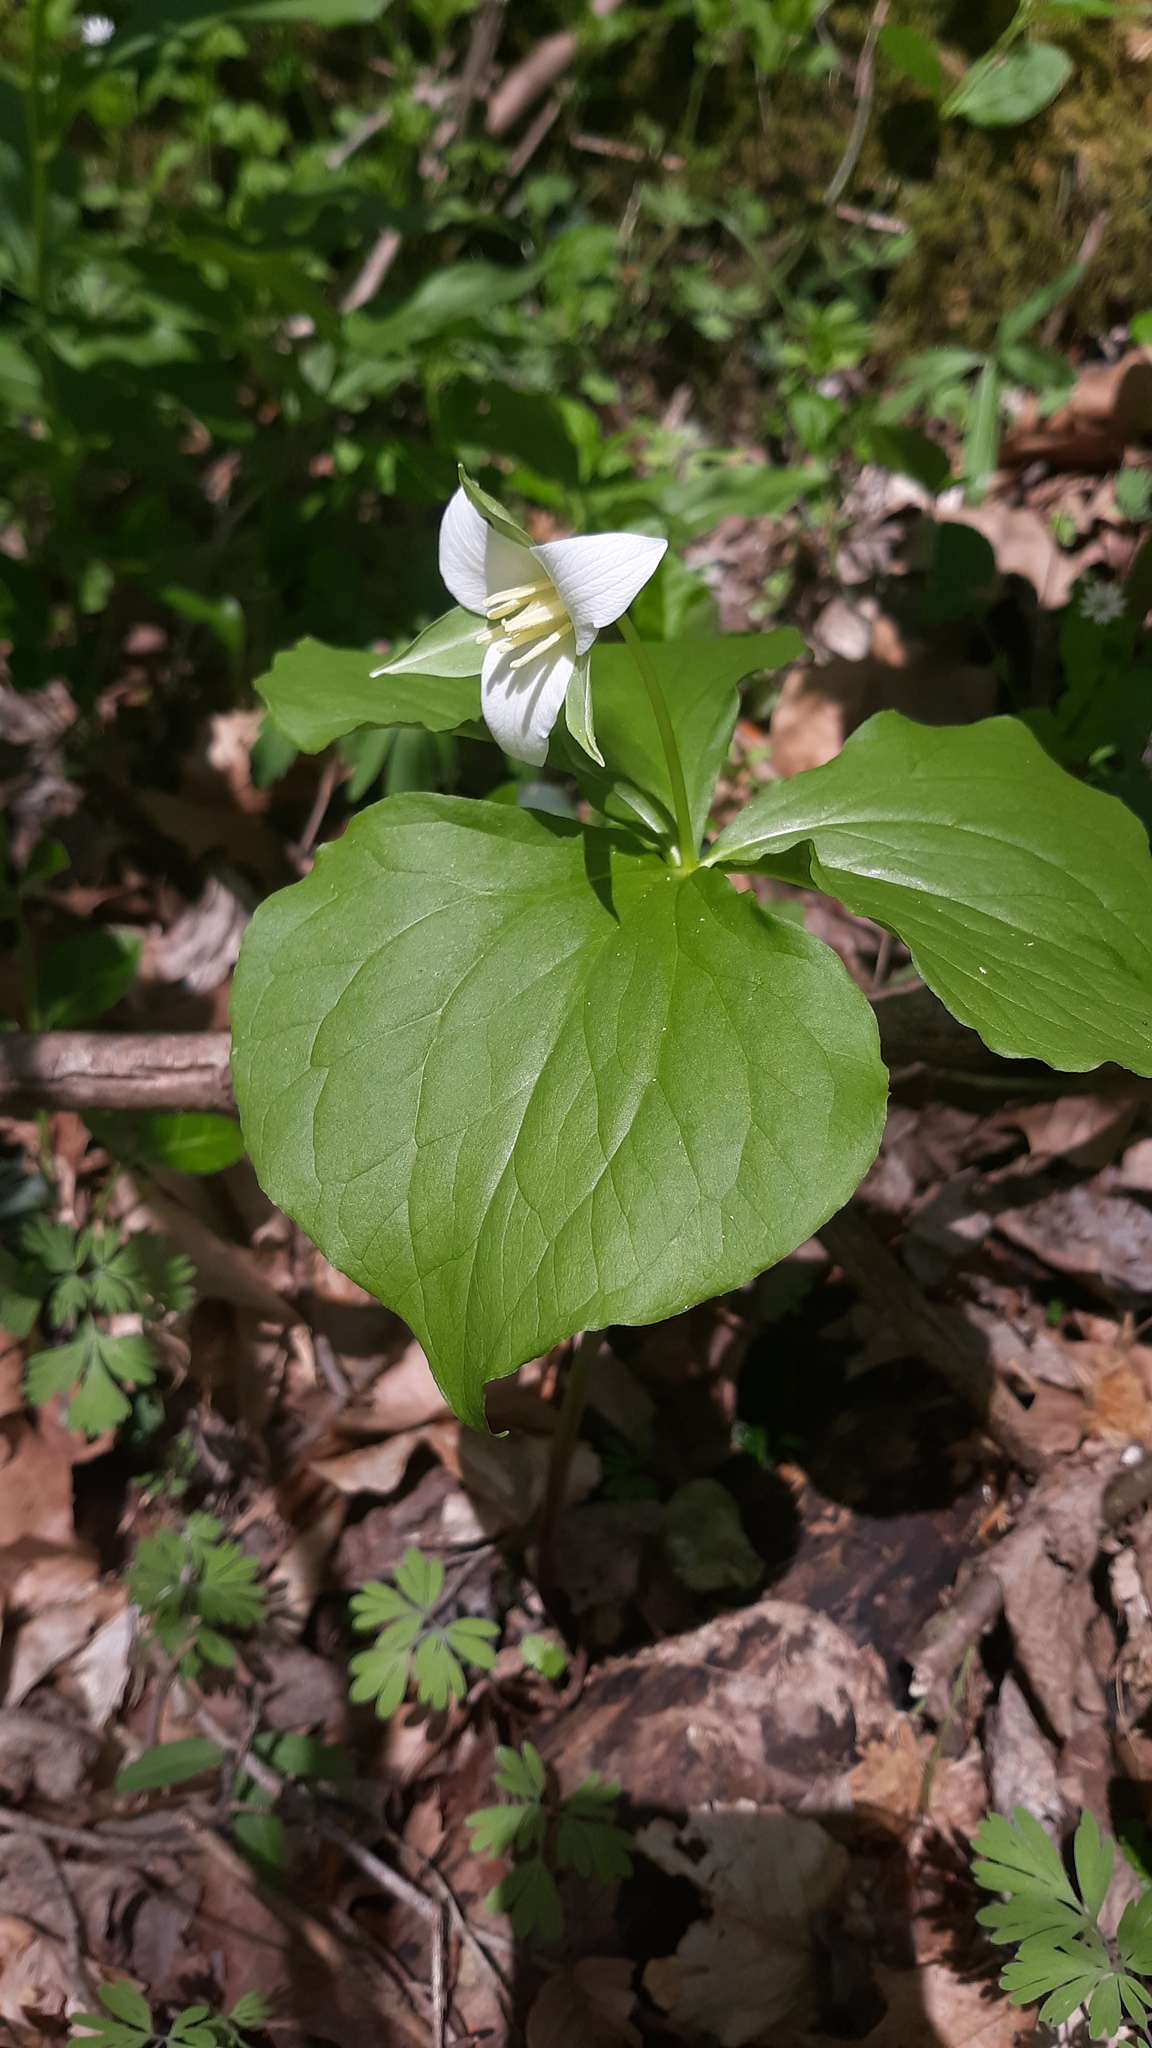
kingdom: Plantae
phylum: Tracheophyta
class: Liliopsida
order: Liliales
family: Melanthiaceae
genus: Trillium
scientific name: Trillium flexipes
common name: Drooping trillium
